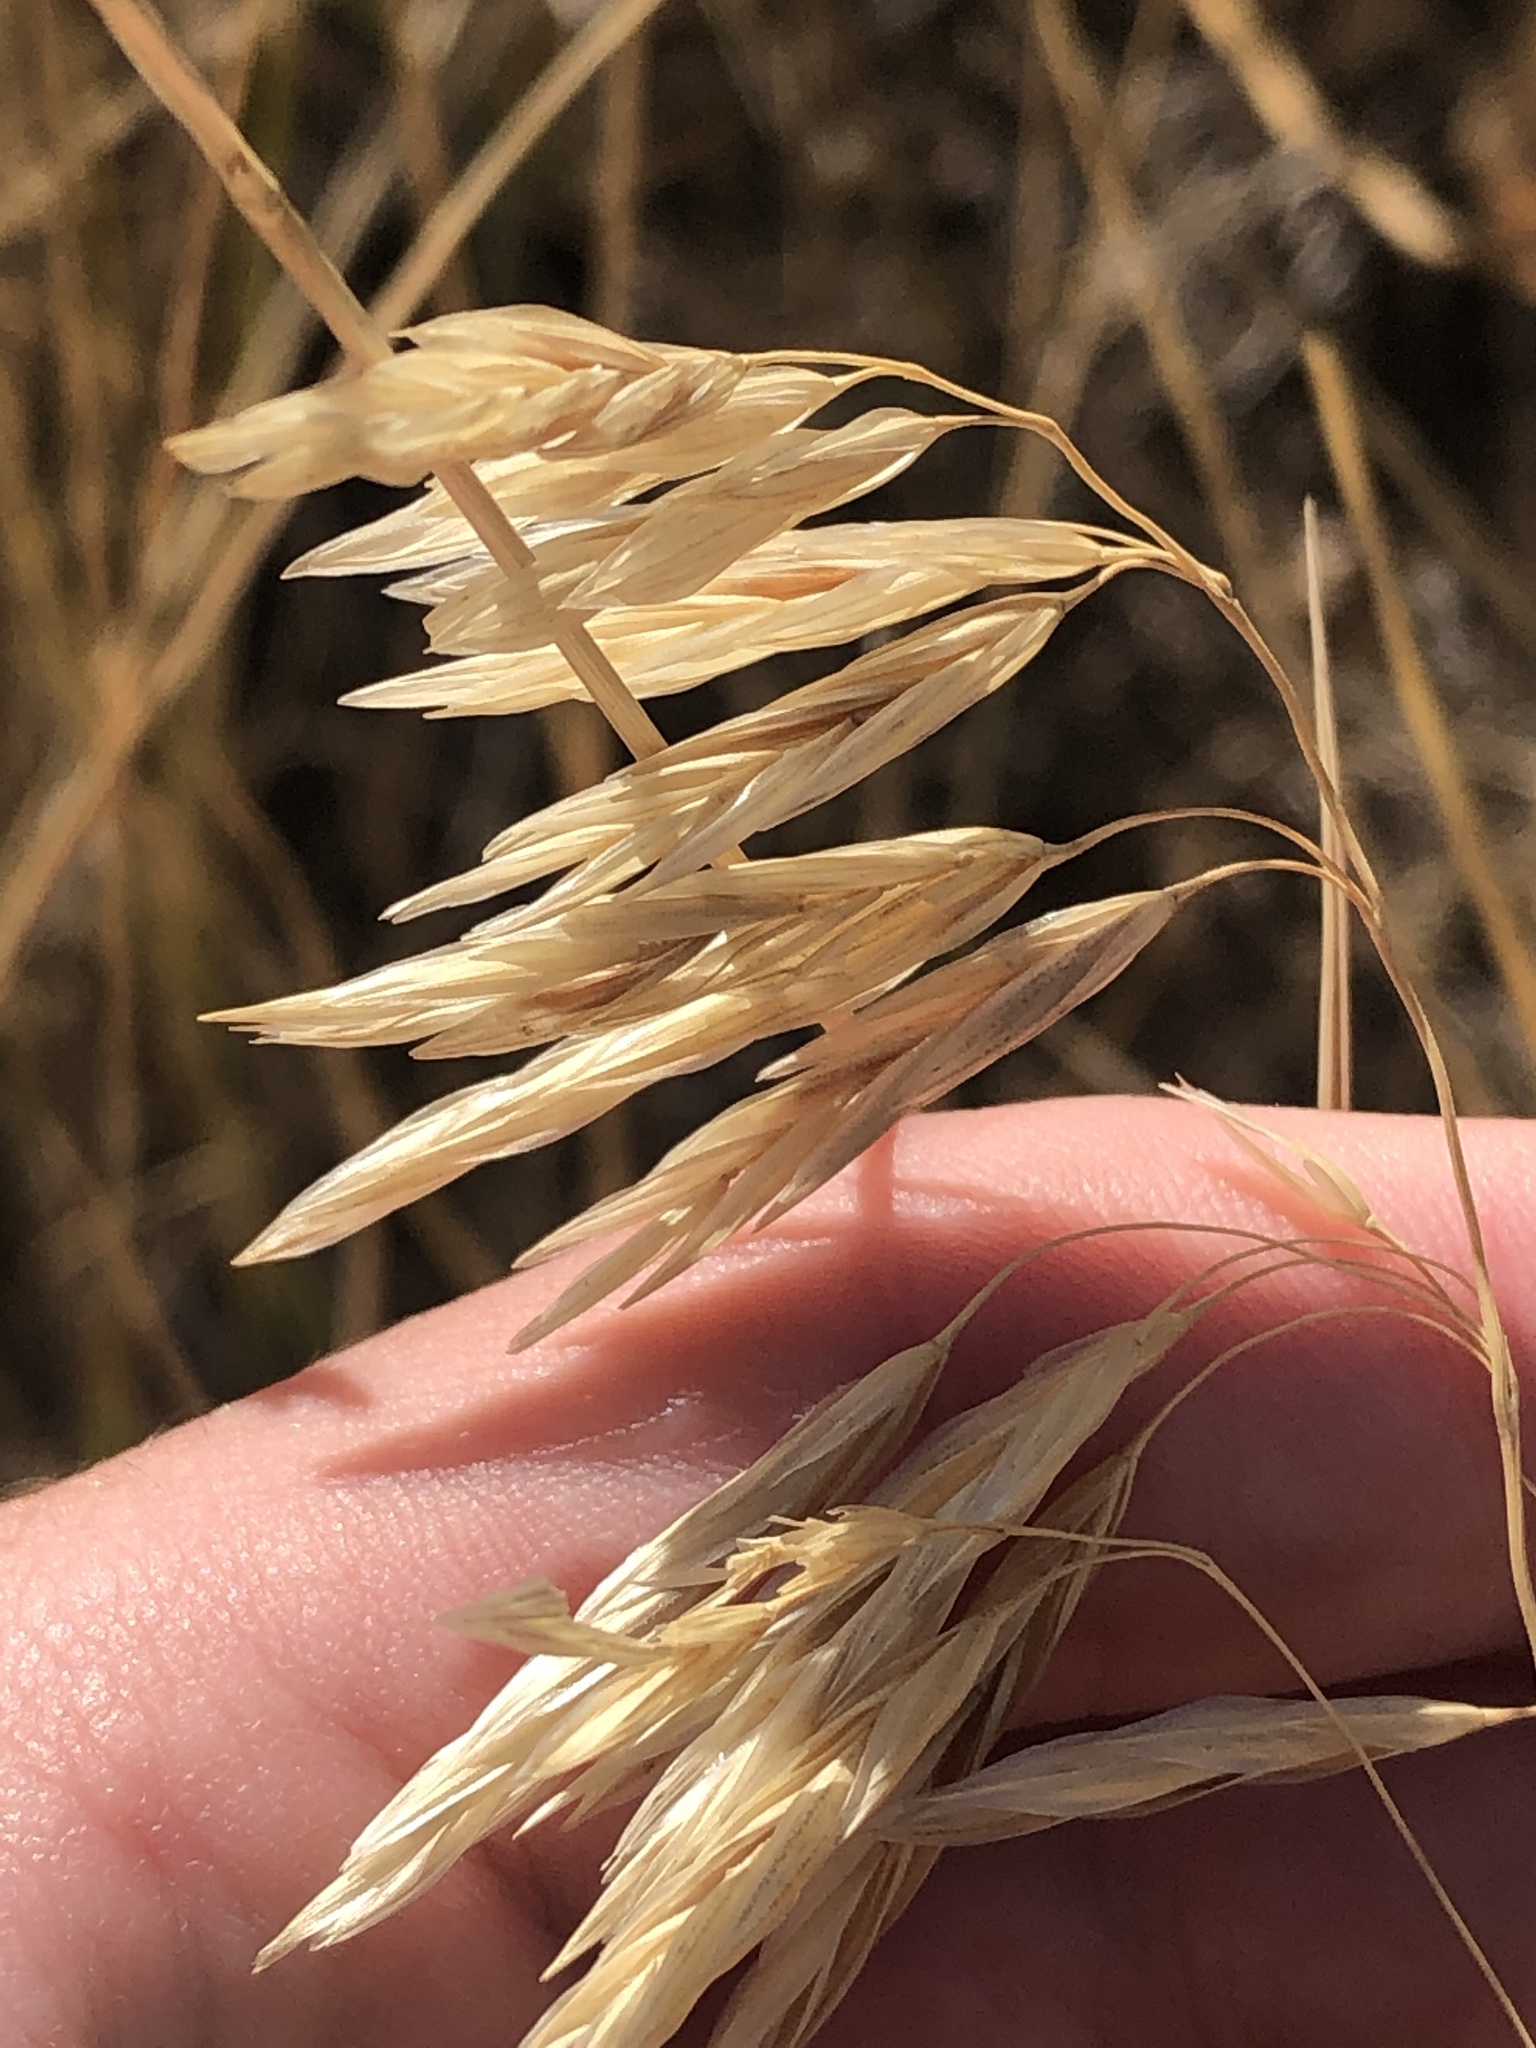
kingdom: Plantae
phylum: Tracheophyta
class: Liliopsida
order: Poales
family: Poaceae
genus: Bromus
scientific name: Bromus inermis
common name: Smooth brome
